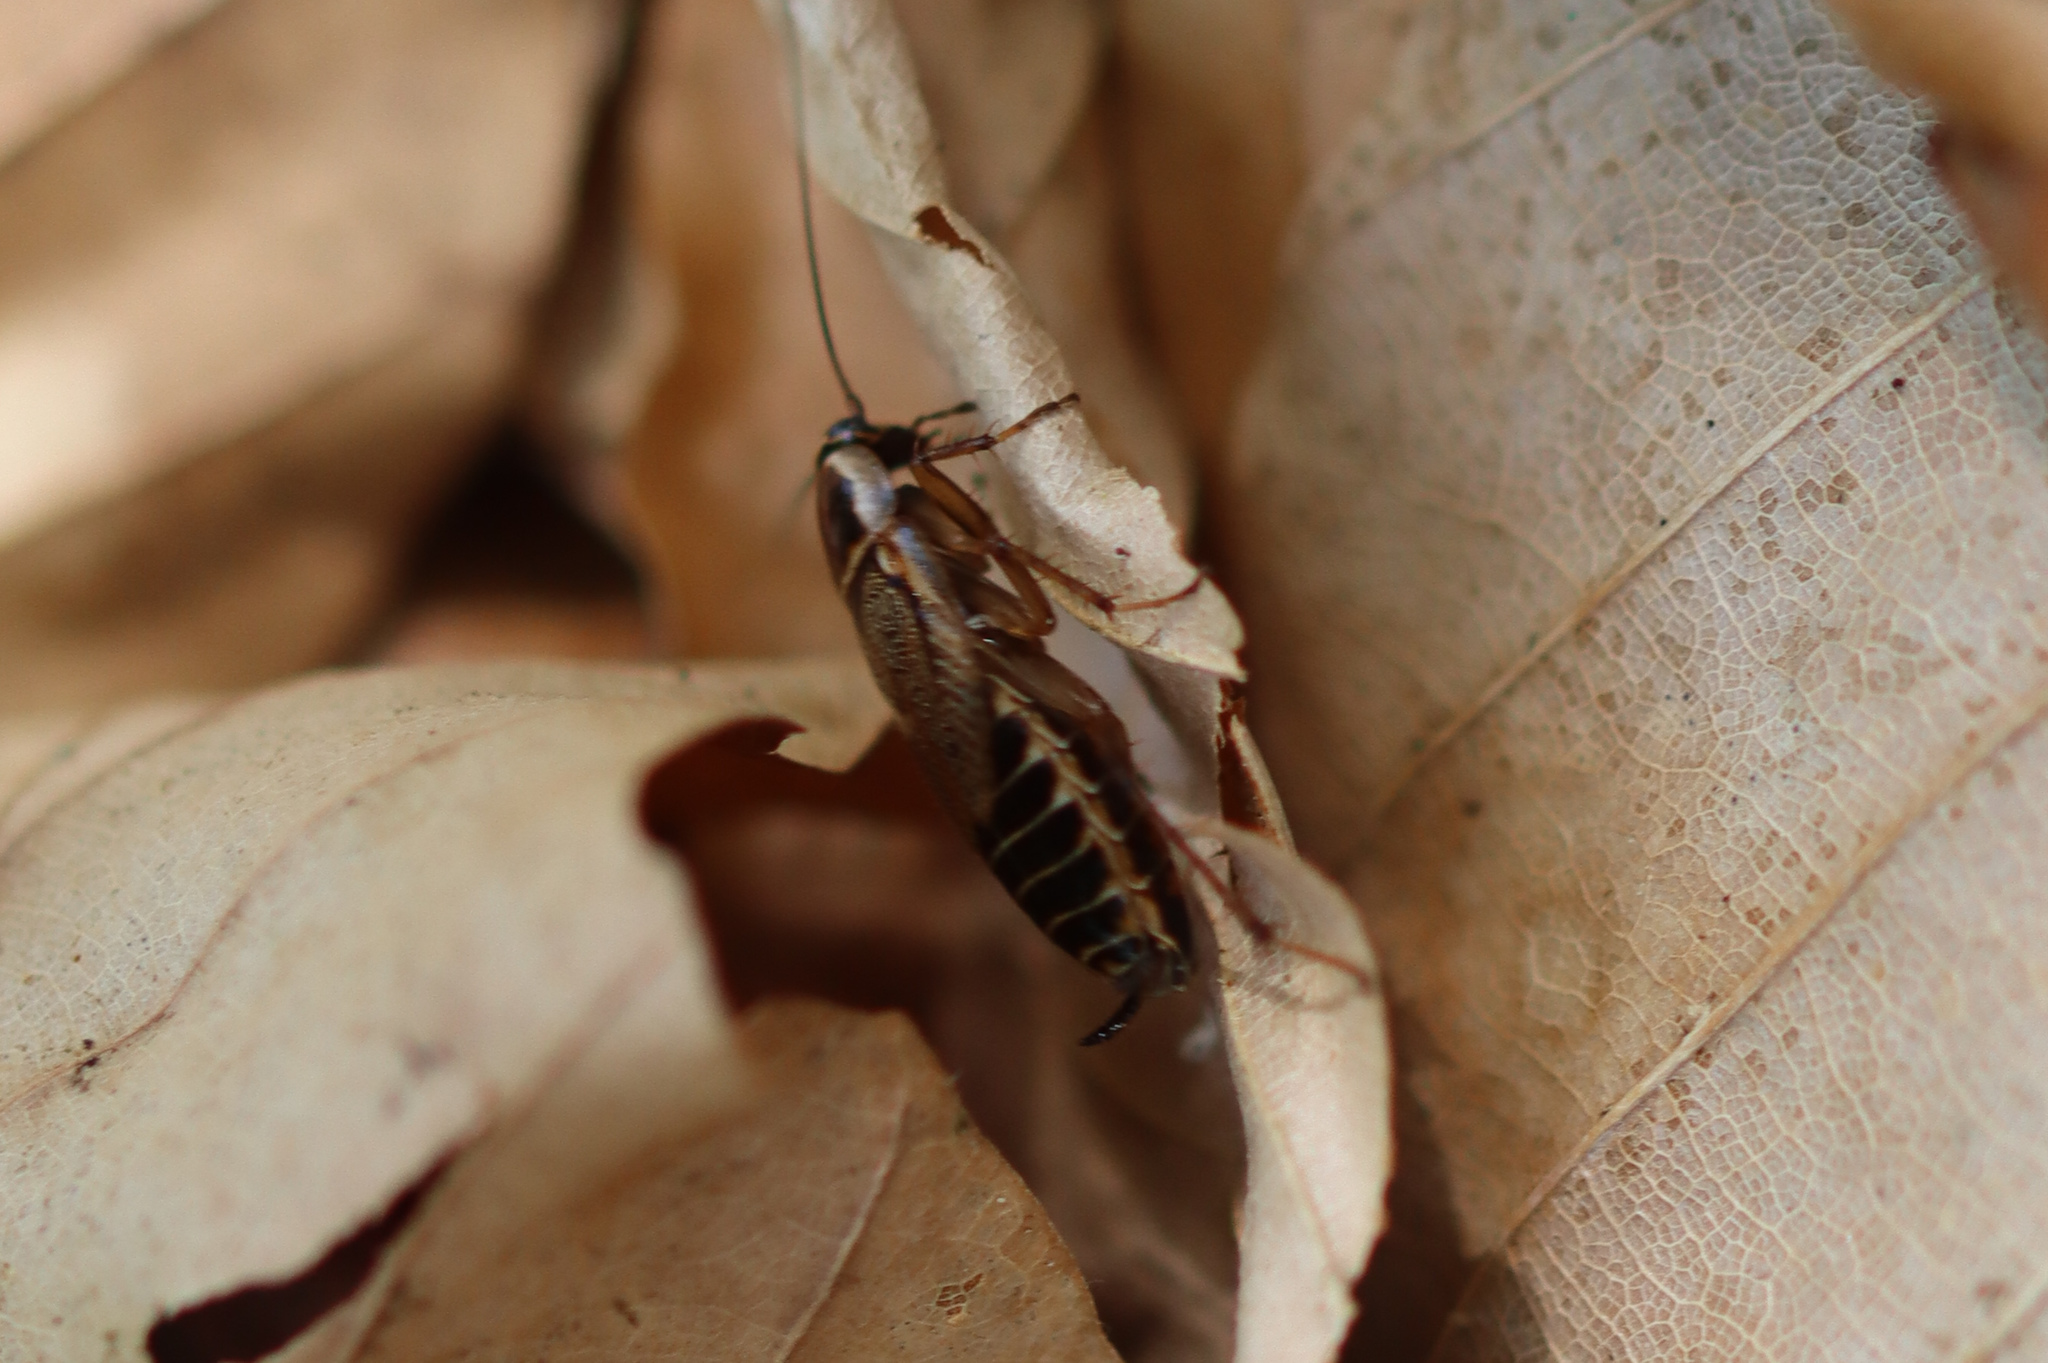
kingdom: Animalia
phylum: Arthropoda
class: Insecta
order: Blattodea
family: Ectobiidae
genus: Ectobius
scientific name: Ectobius sylvestris
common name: Forest cockroach
